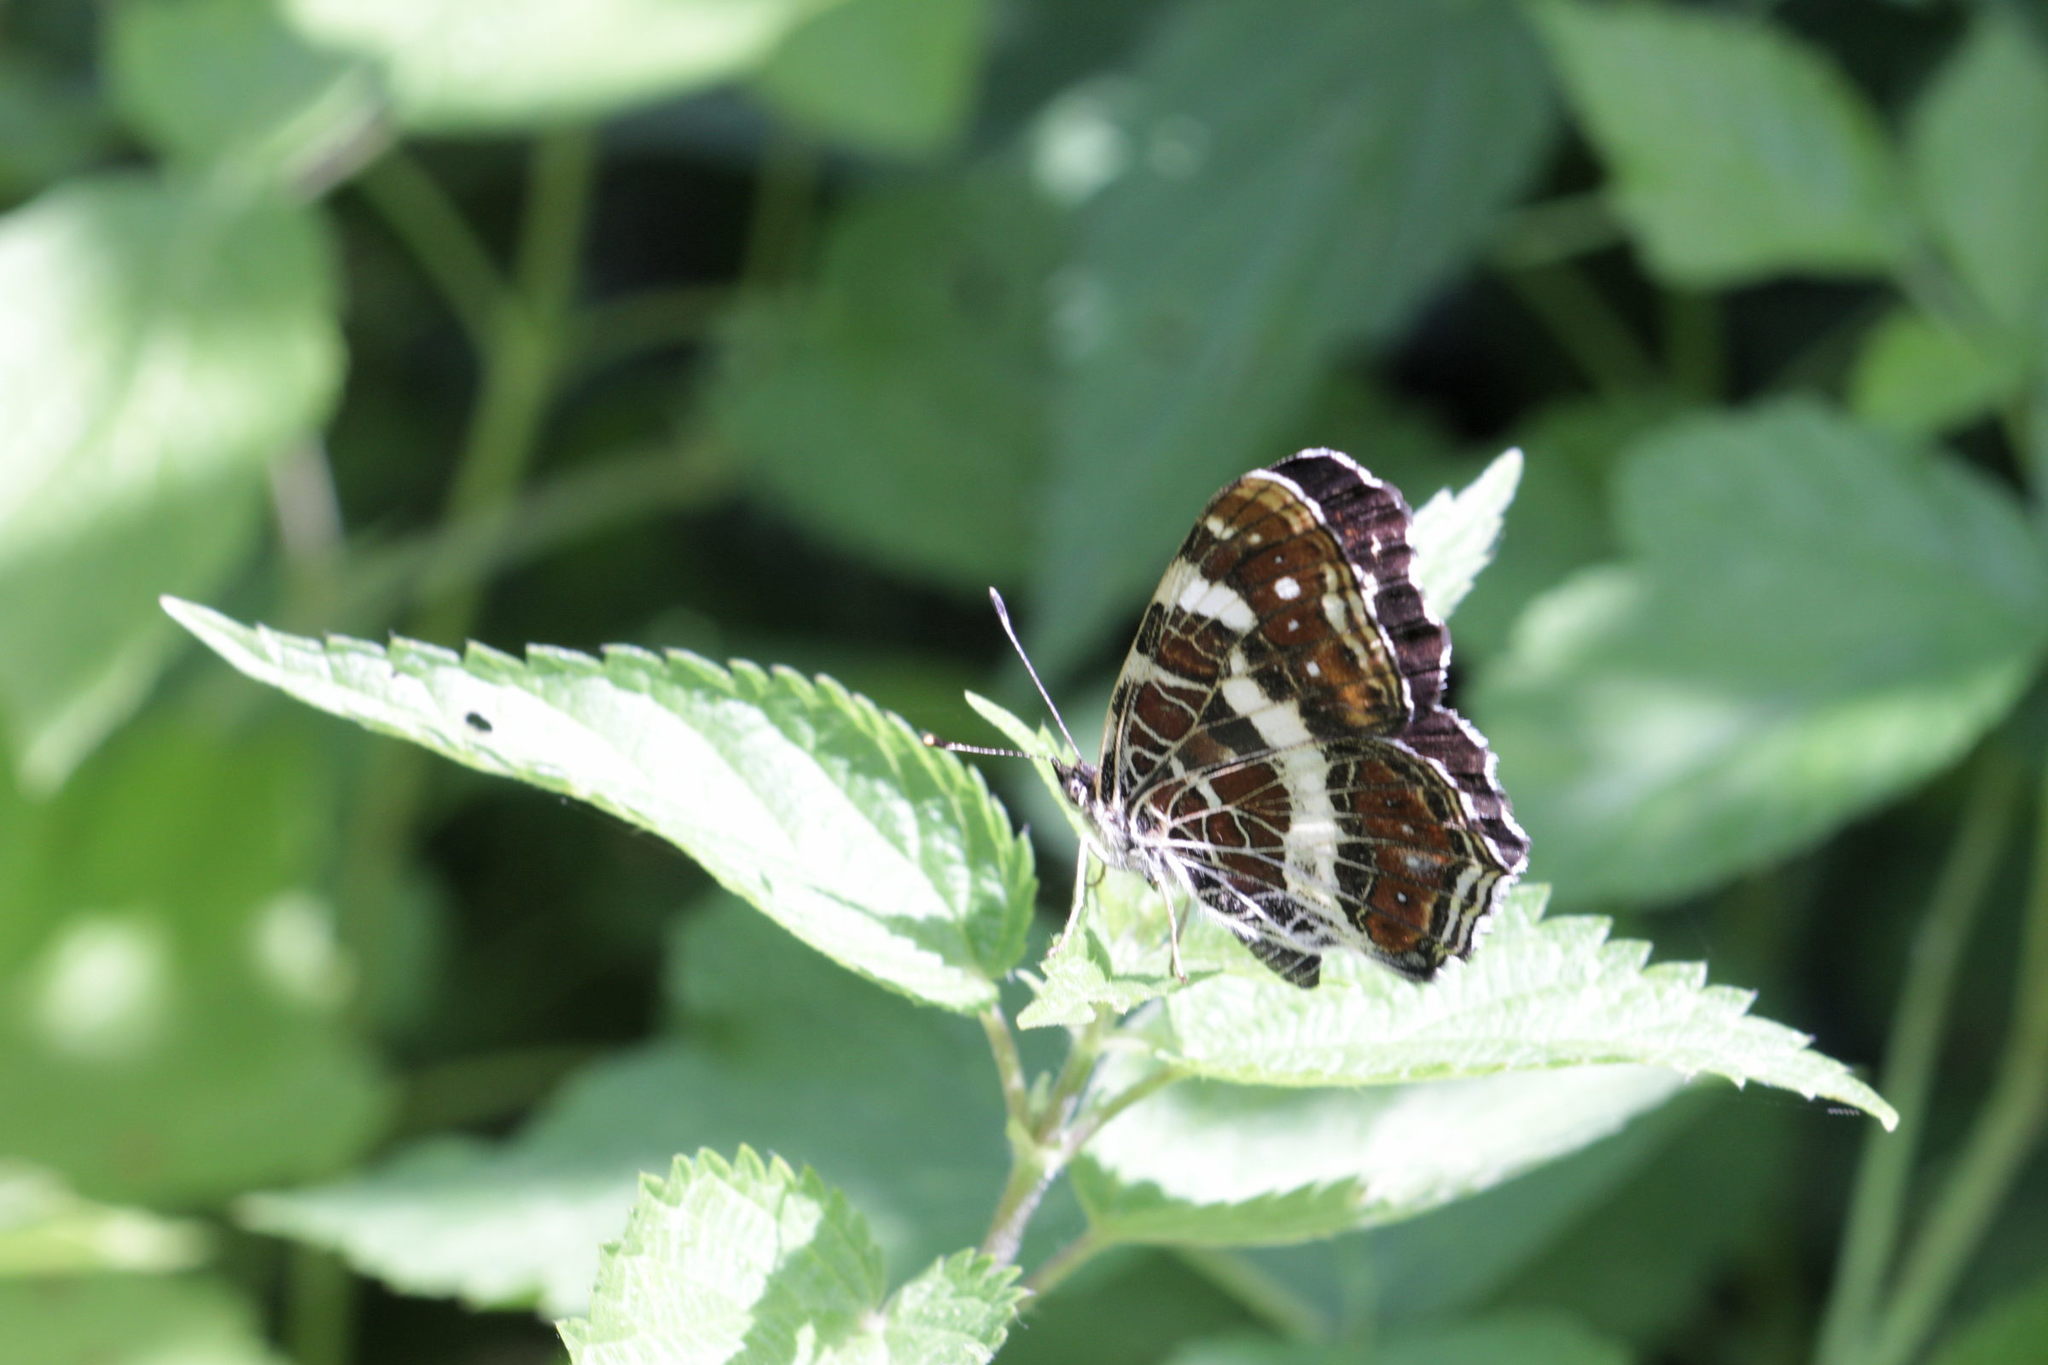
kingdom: Animalia
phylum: Arthropoda
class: Insecta
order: Lepidoptera
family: Nymphalidae
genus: Araschnia
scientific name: Araschnia levana
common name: Map butterfly
